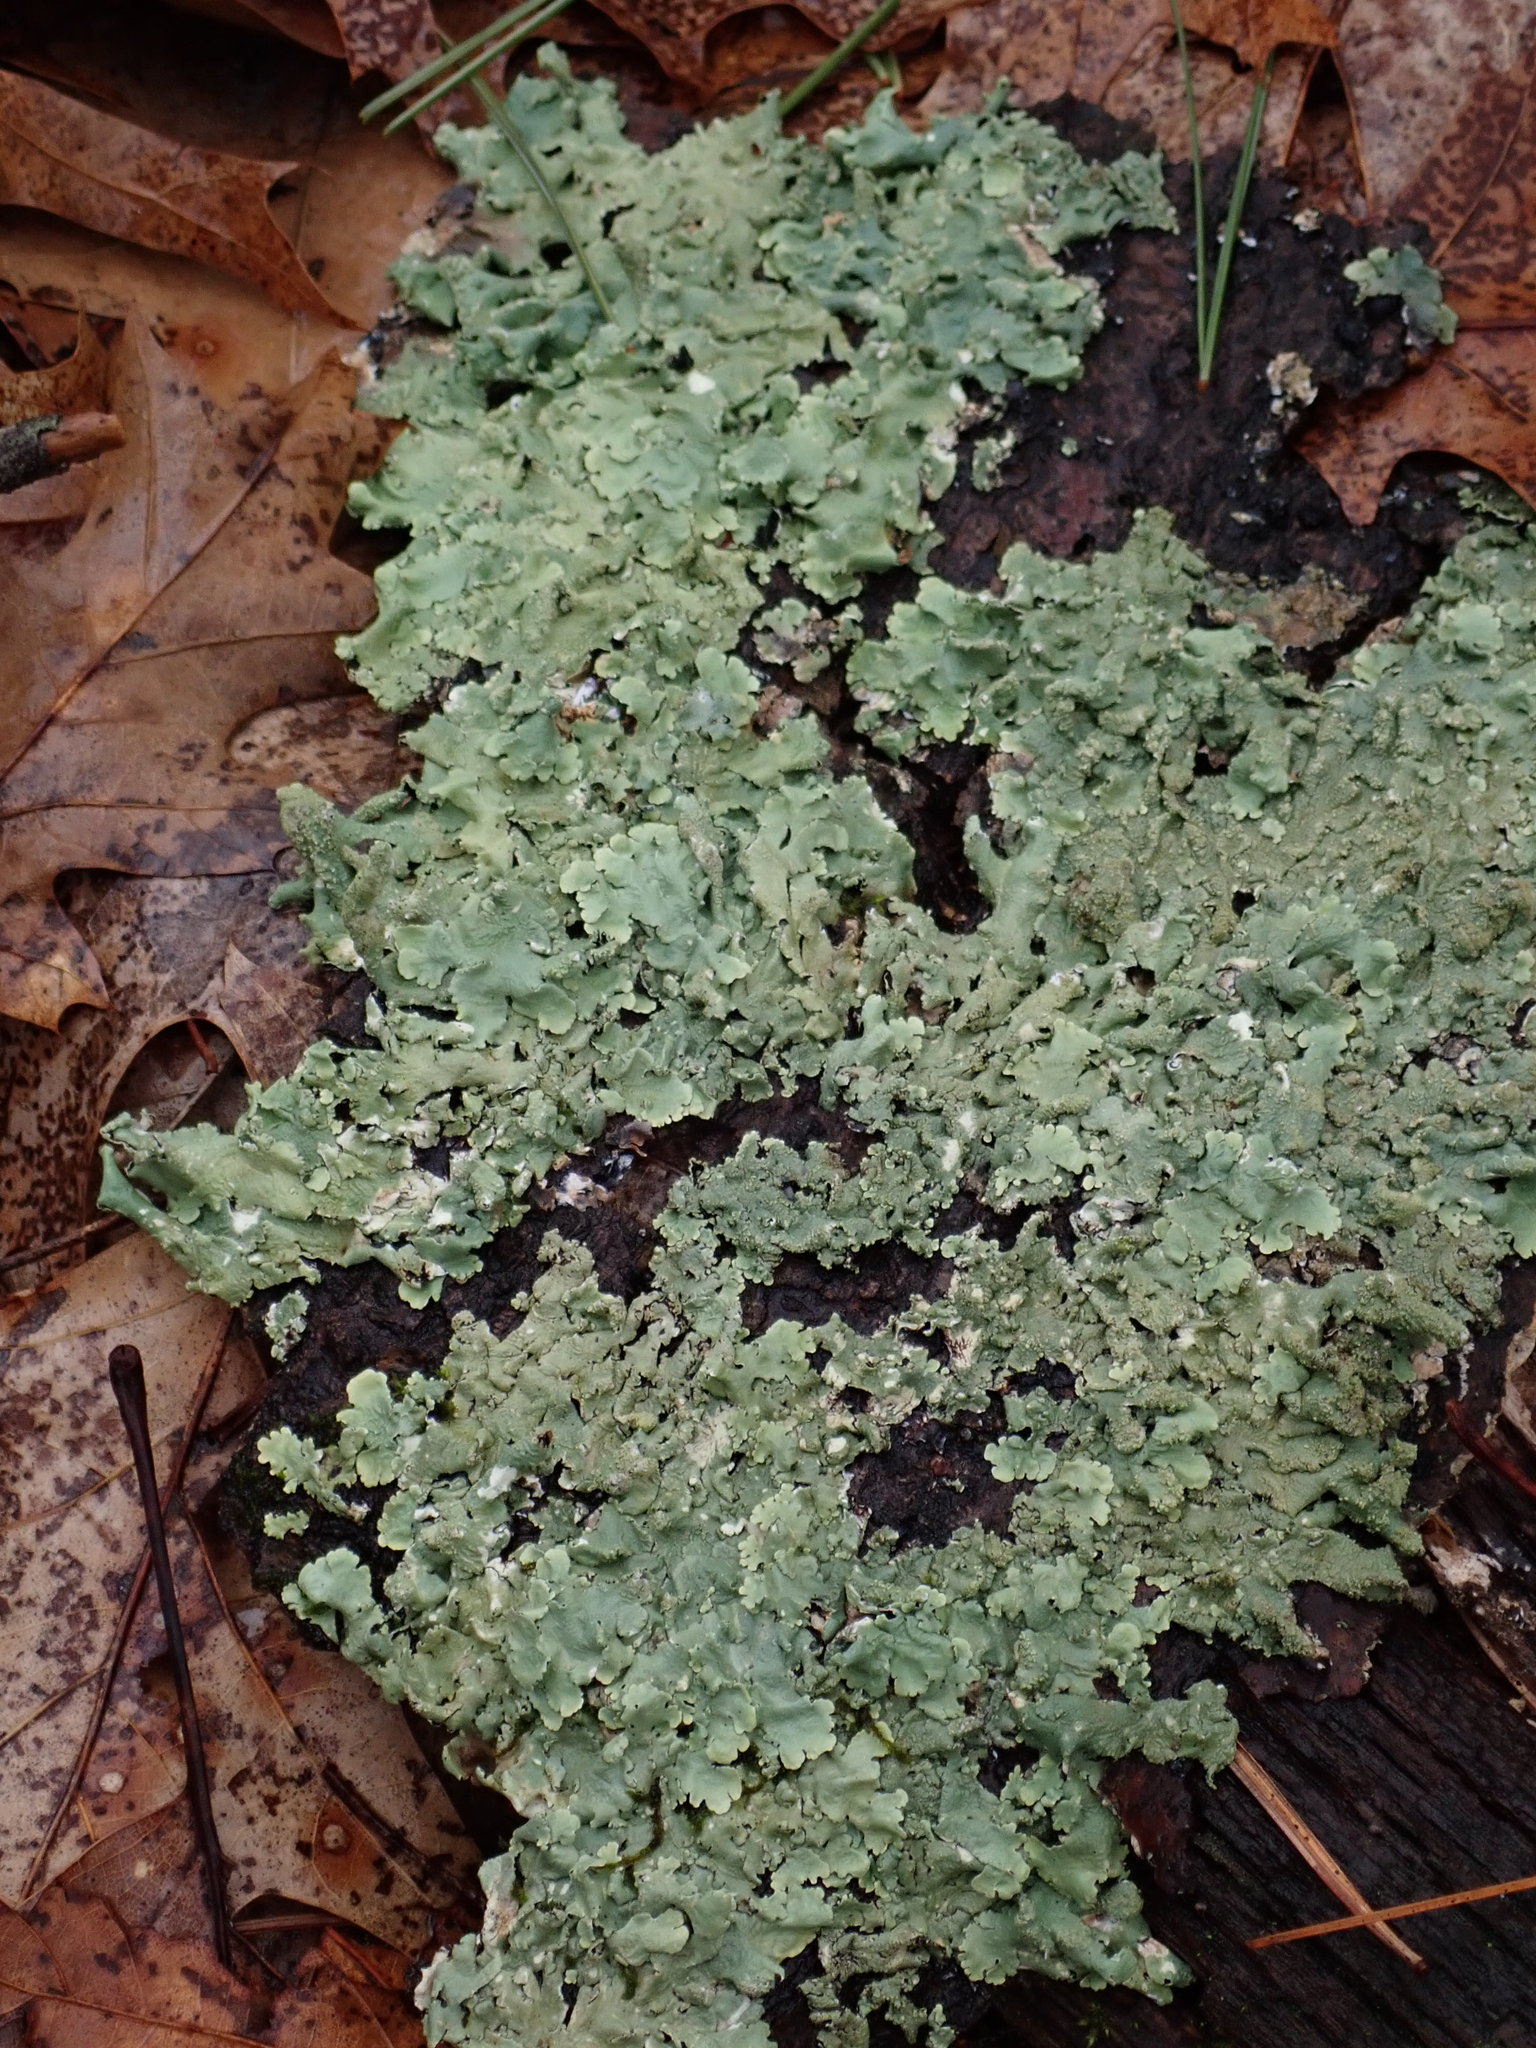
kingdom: Fungi
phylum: Ascomycota
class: Lecanoromycetes
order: Lecanorales
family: Parmeliaceae
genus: Flavoparmelia
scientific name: Flavoparmelia caperata
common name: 40-mile per hour lichen
